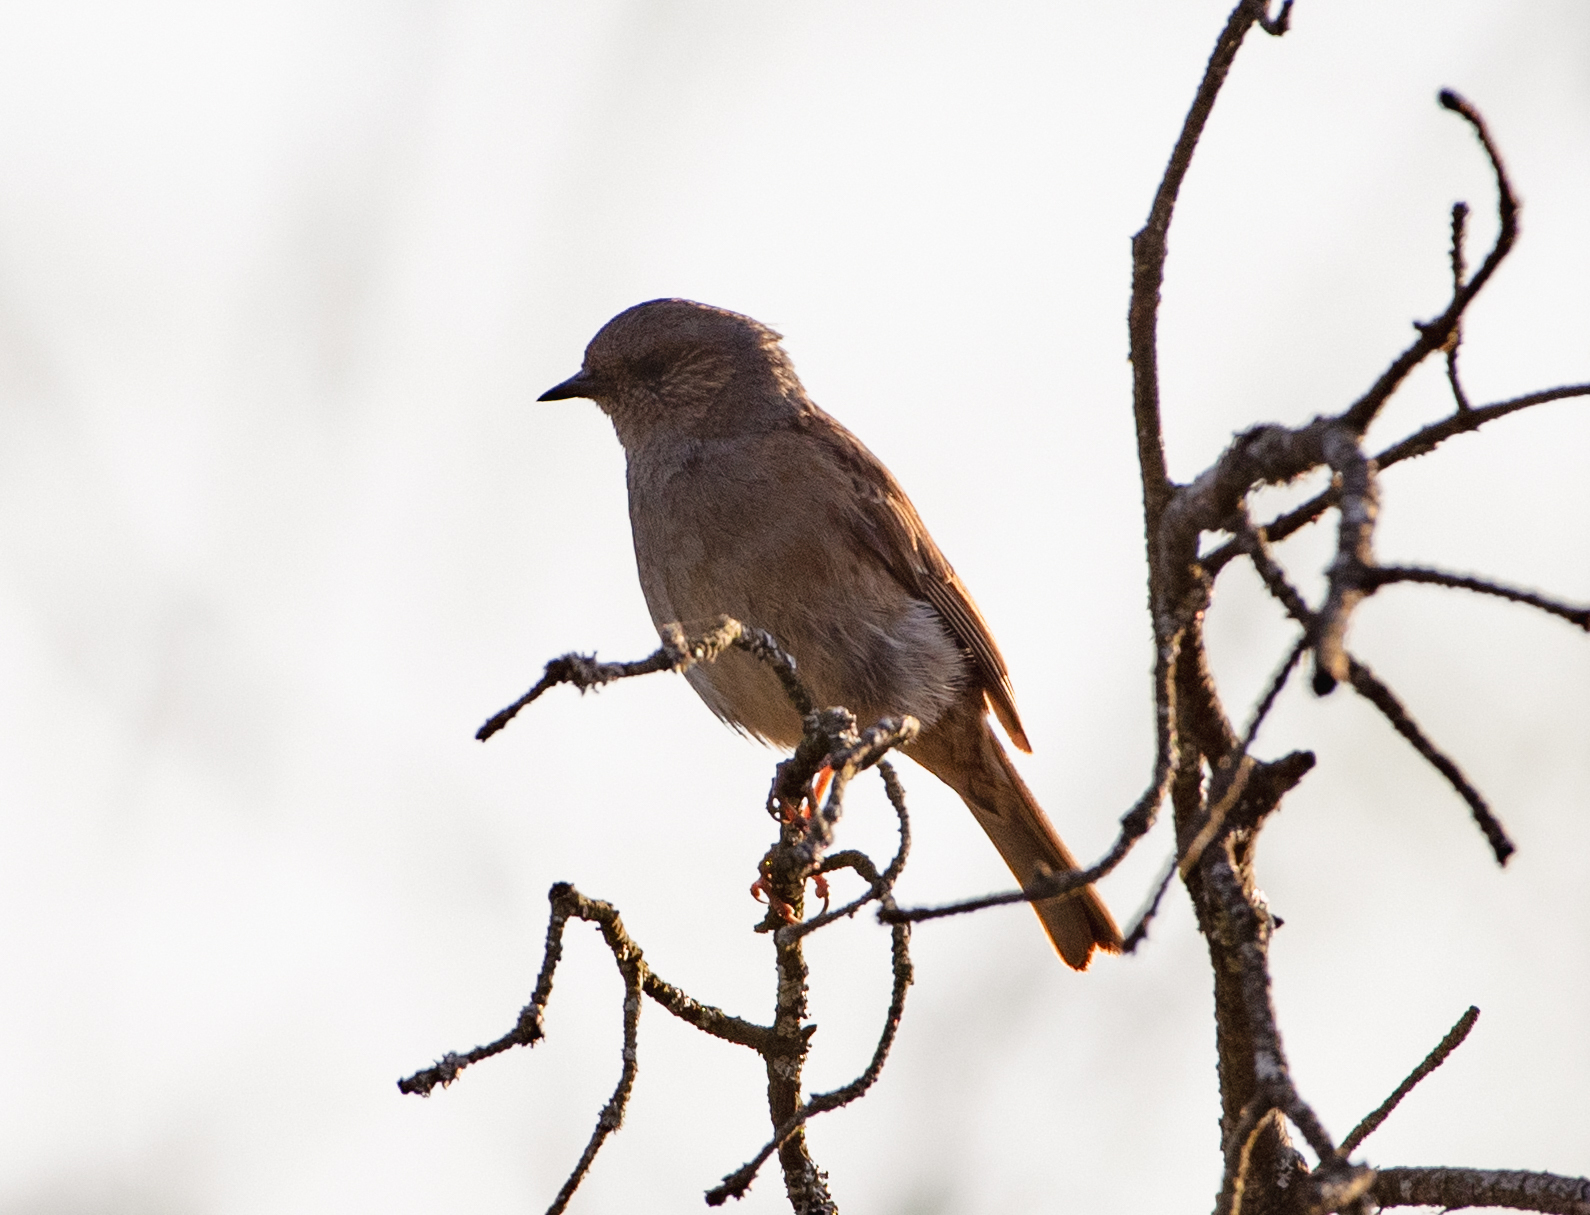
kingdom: Animalia
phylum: Chordata
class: Aves
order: Passeriformes
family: Prunellidae
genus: Prunella
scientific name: Prunella modularis
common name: Dunnock
